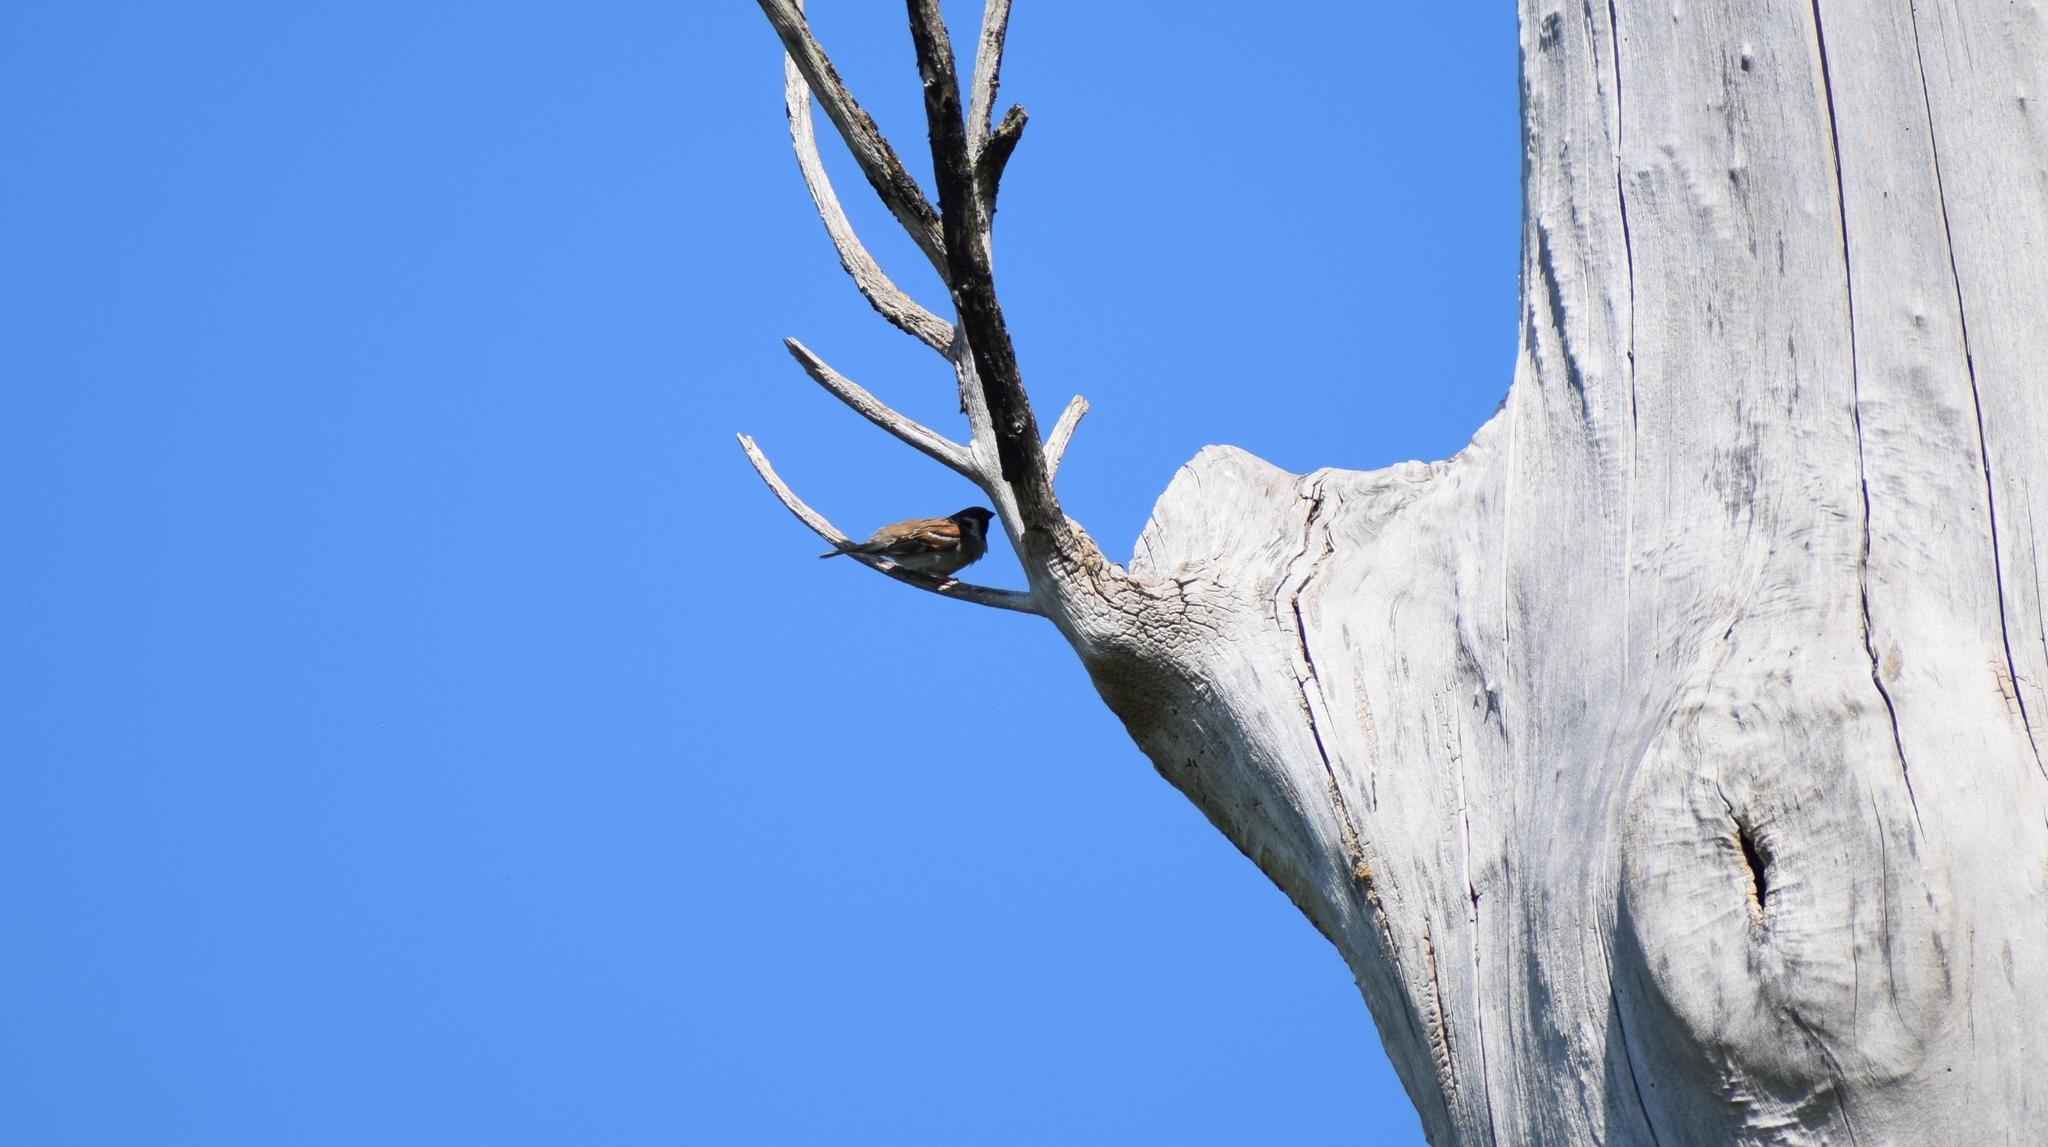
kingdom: Animalia
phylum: Chordata
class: Aves
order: Passeriformes
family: Passeridae
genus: Passer
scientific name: Passer montanus
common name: Eurasian tree sparrow
